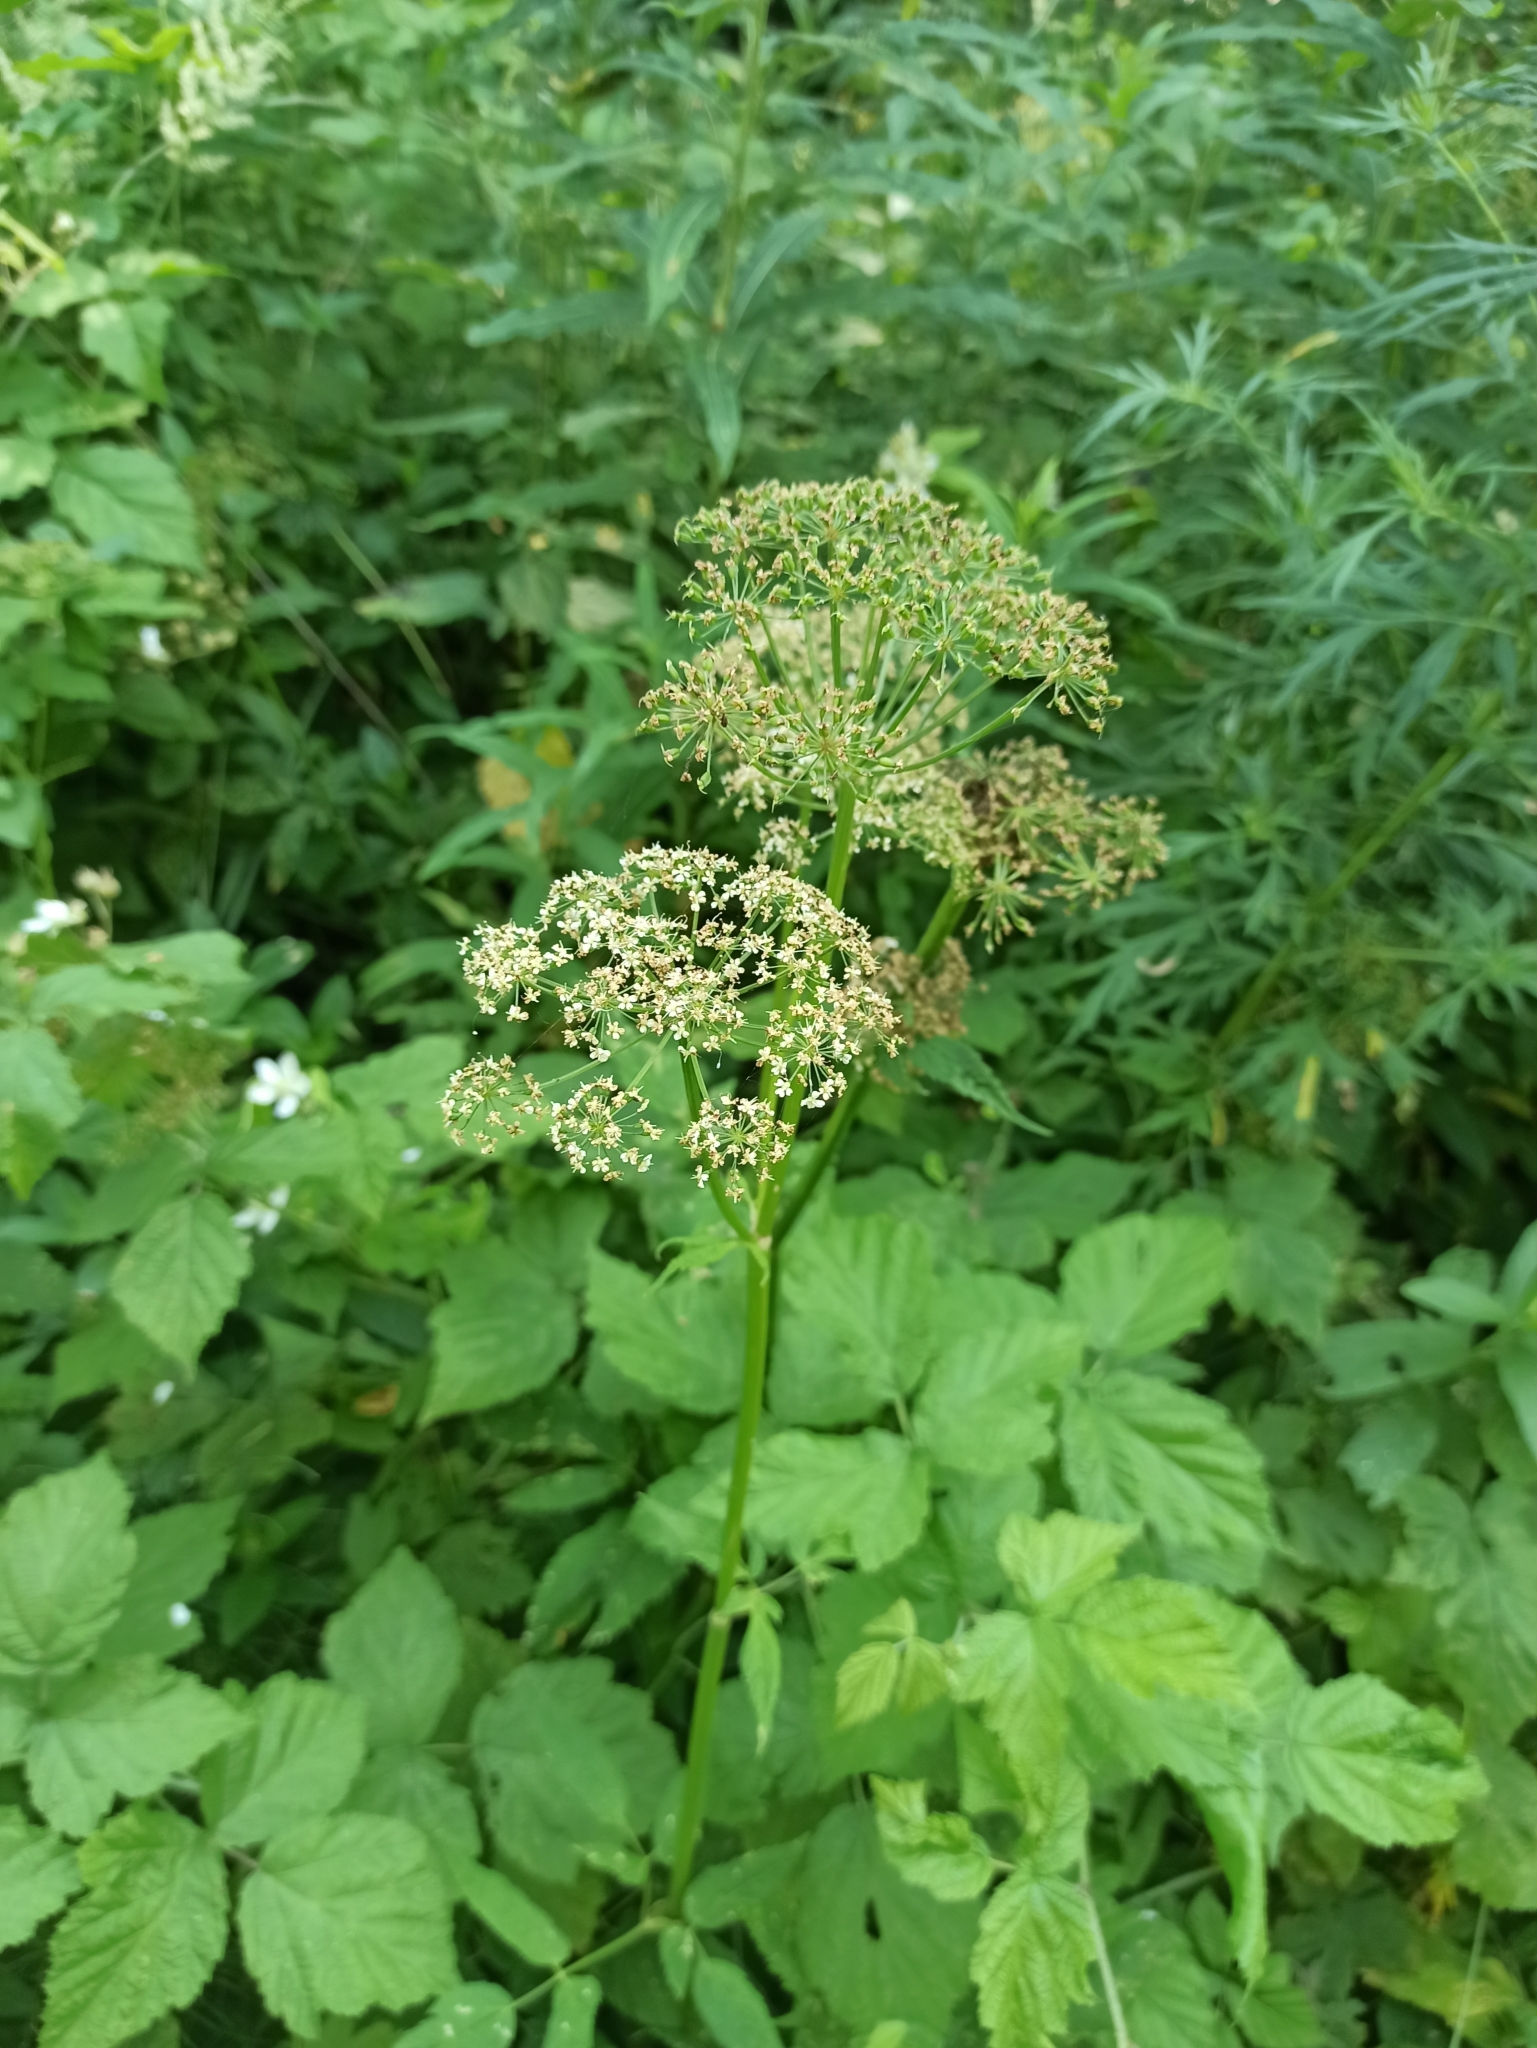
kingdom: Plantae
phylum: Tracheophyta
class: Magnoliopsida
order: Apiales
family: Apiaceae
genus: Aegopodium
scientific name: Aegopodium podagraria
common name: Ground-elder
